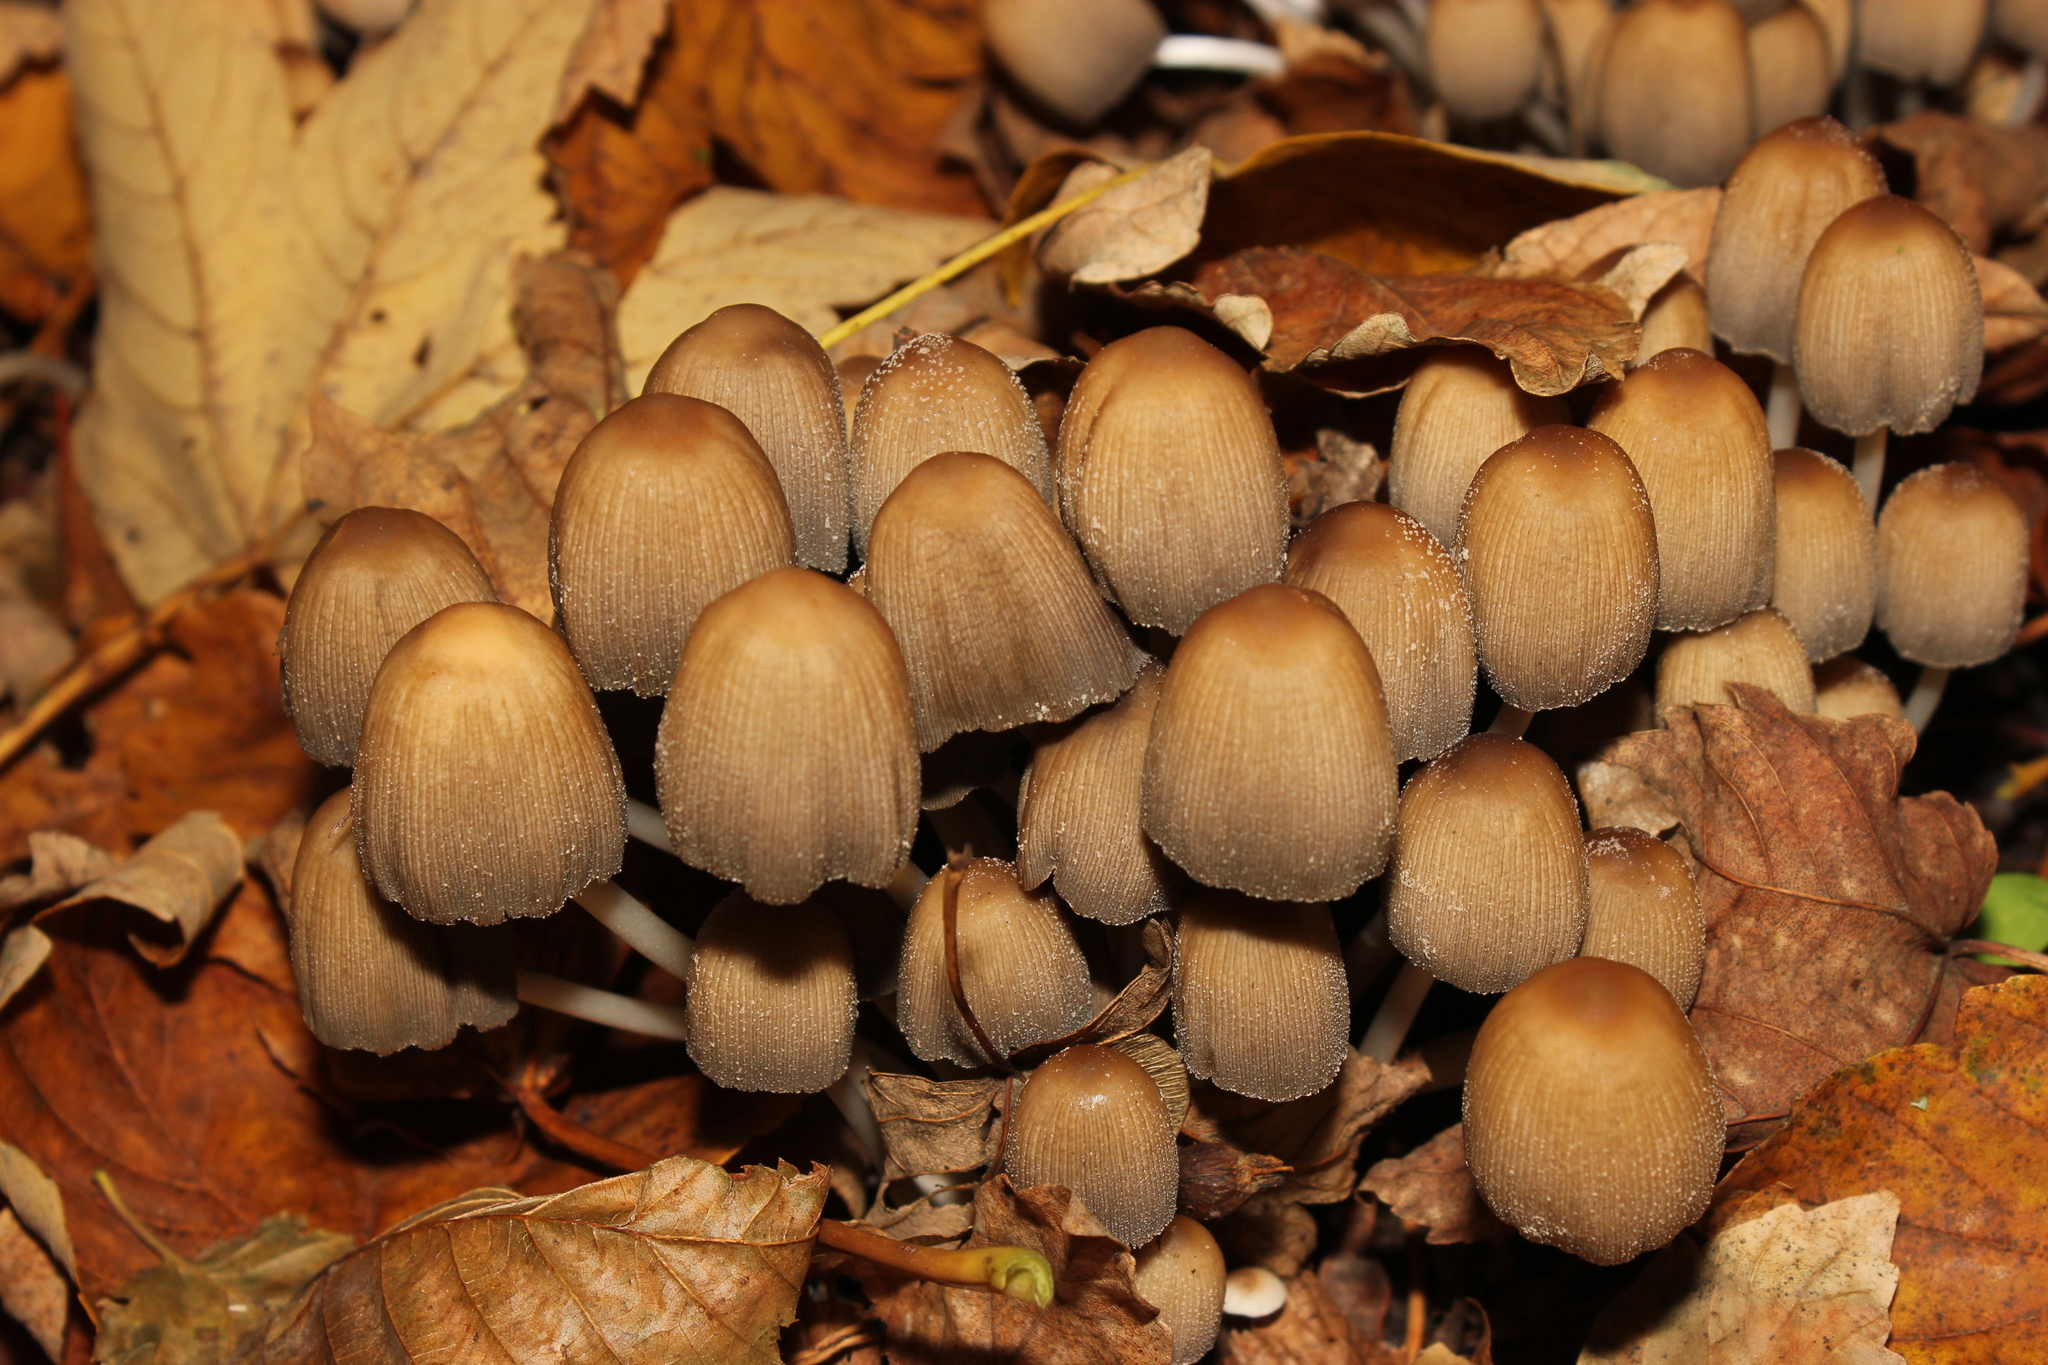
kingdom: Fungi
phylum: Basidiomycota
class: Agaricomycetes
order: Agaricales
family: Psathyrellaceae
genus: Coprinellus
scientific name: Coprinellus micaceus
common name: Glistening ink-cap
